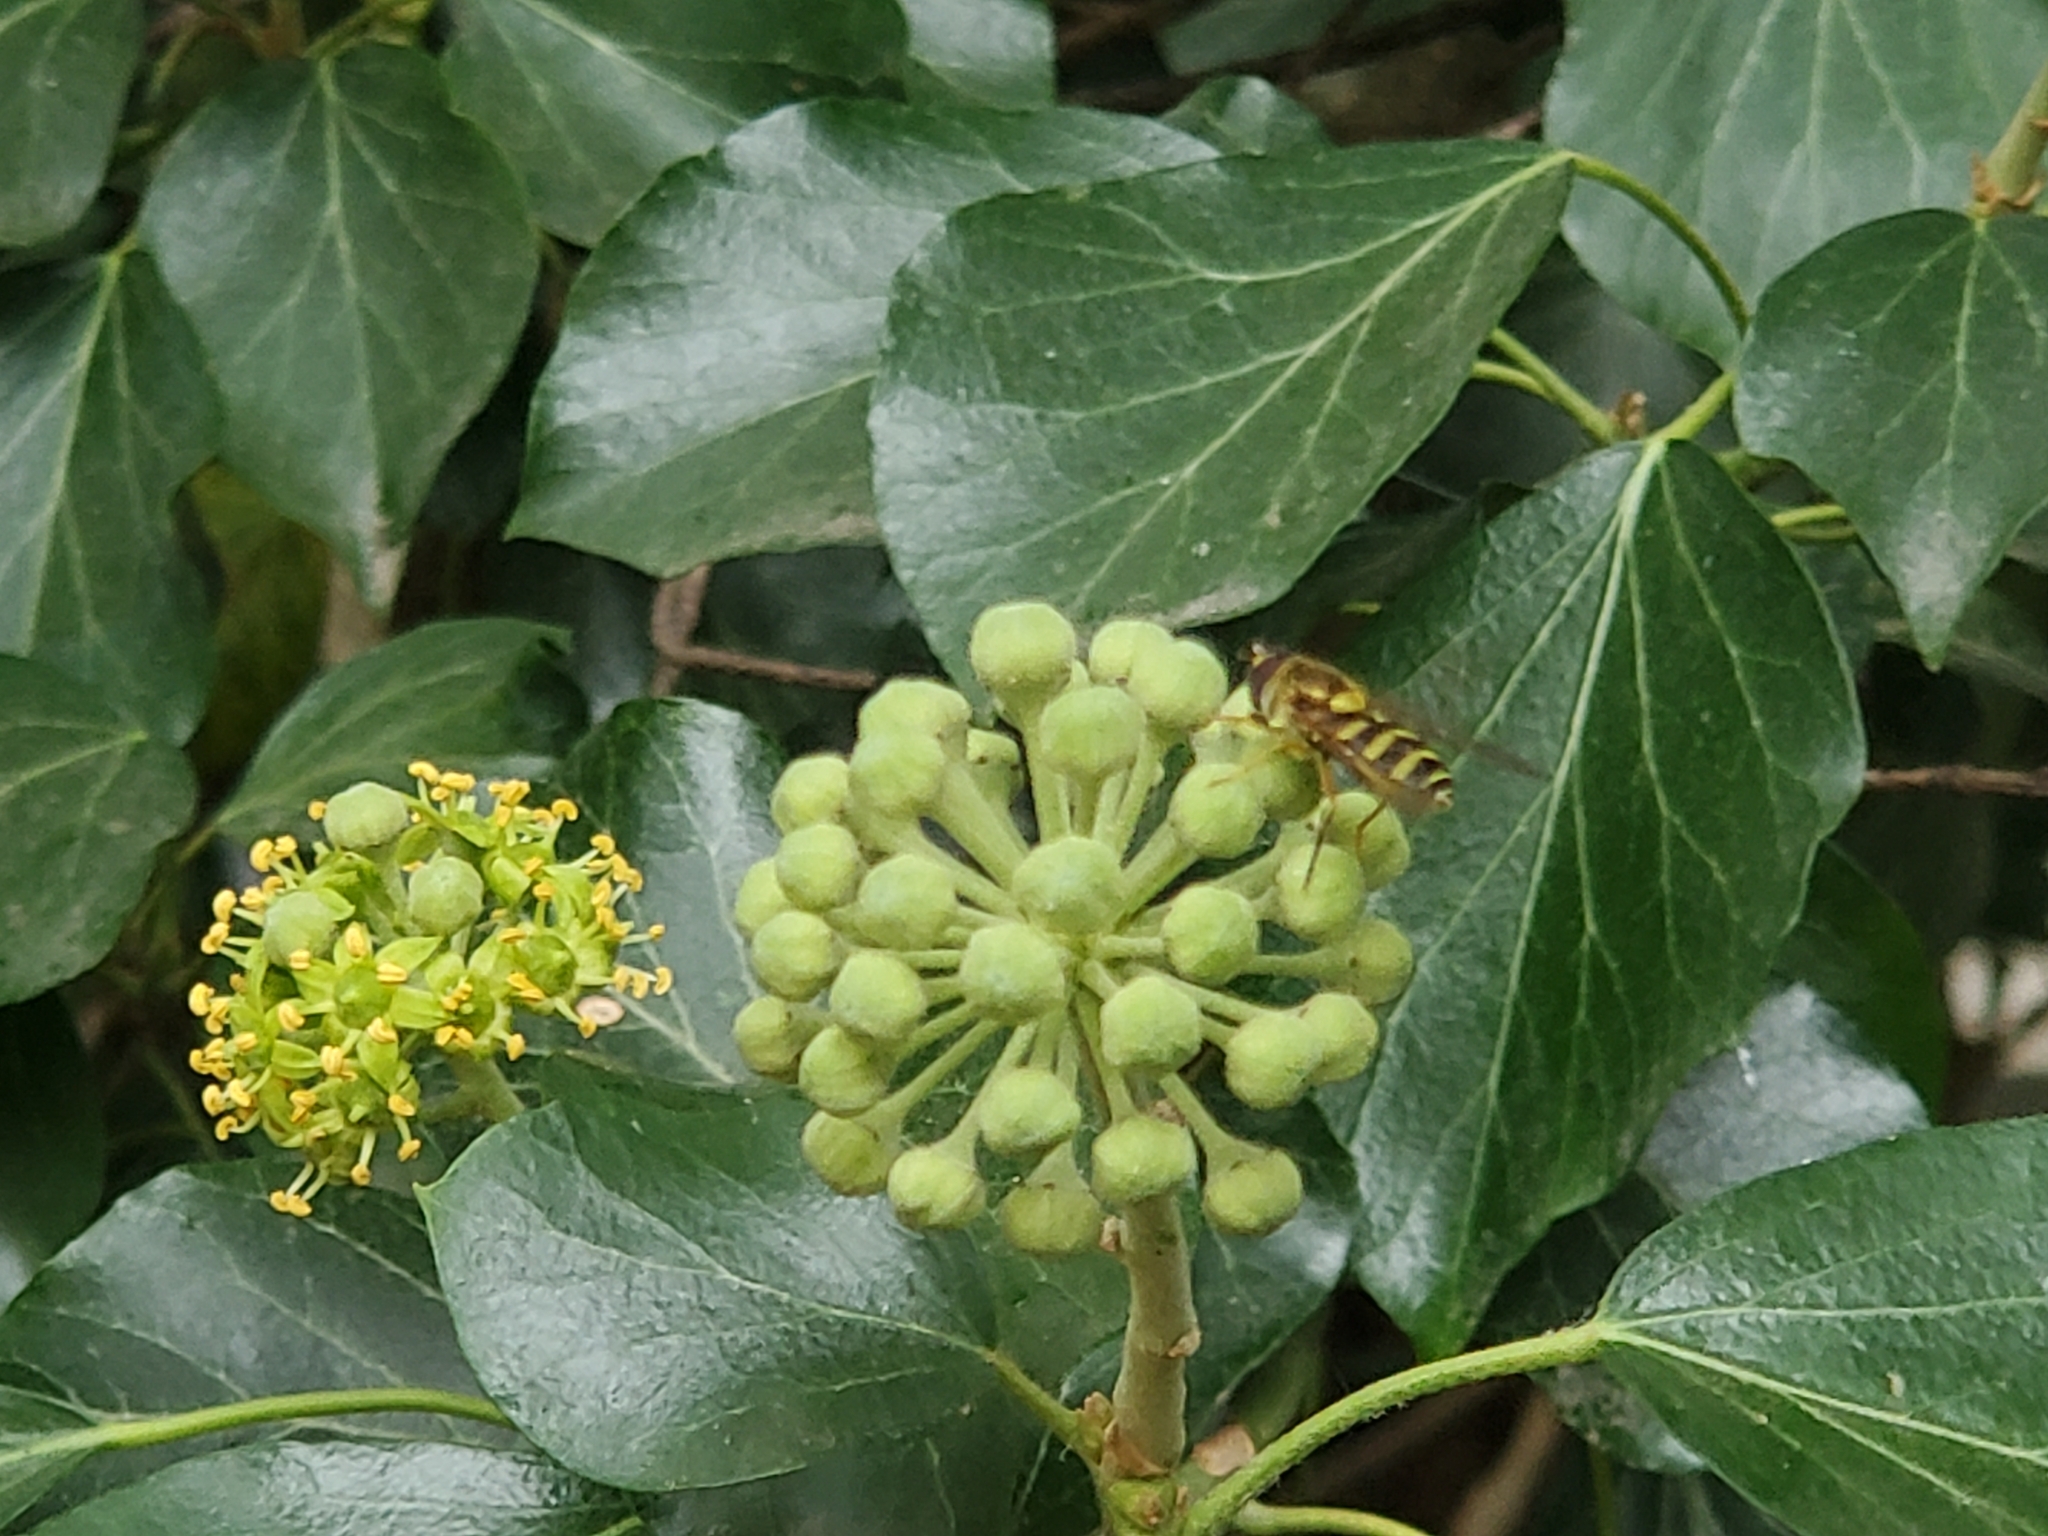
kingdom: Animalia
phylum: Arthropoda
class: Insecta
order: Diptera
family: Syrphidae
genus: Syrphus
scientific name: Syrphus opinator
